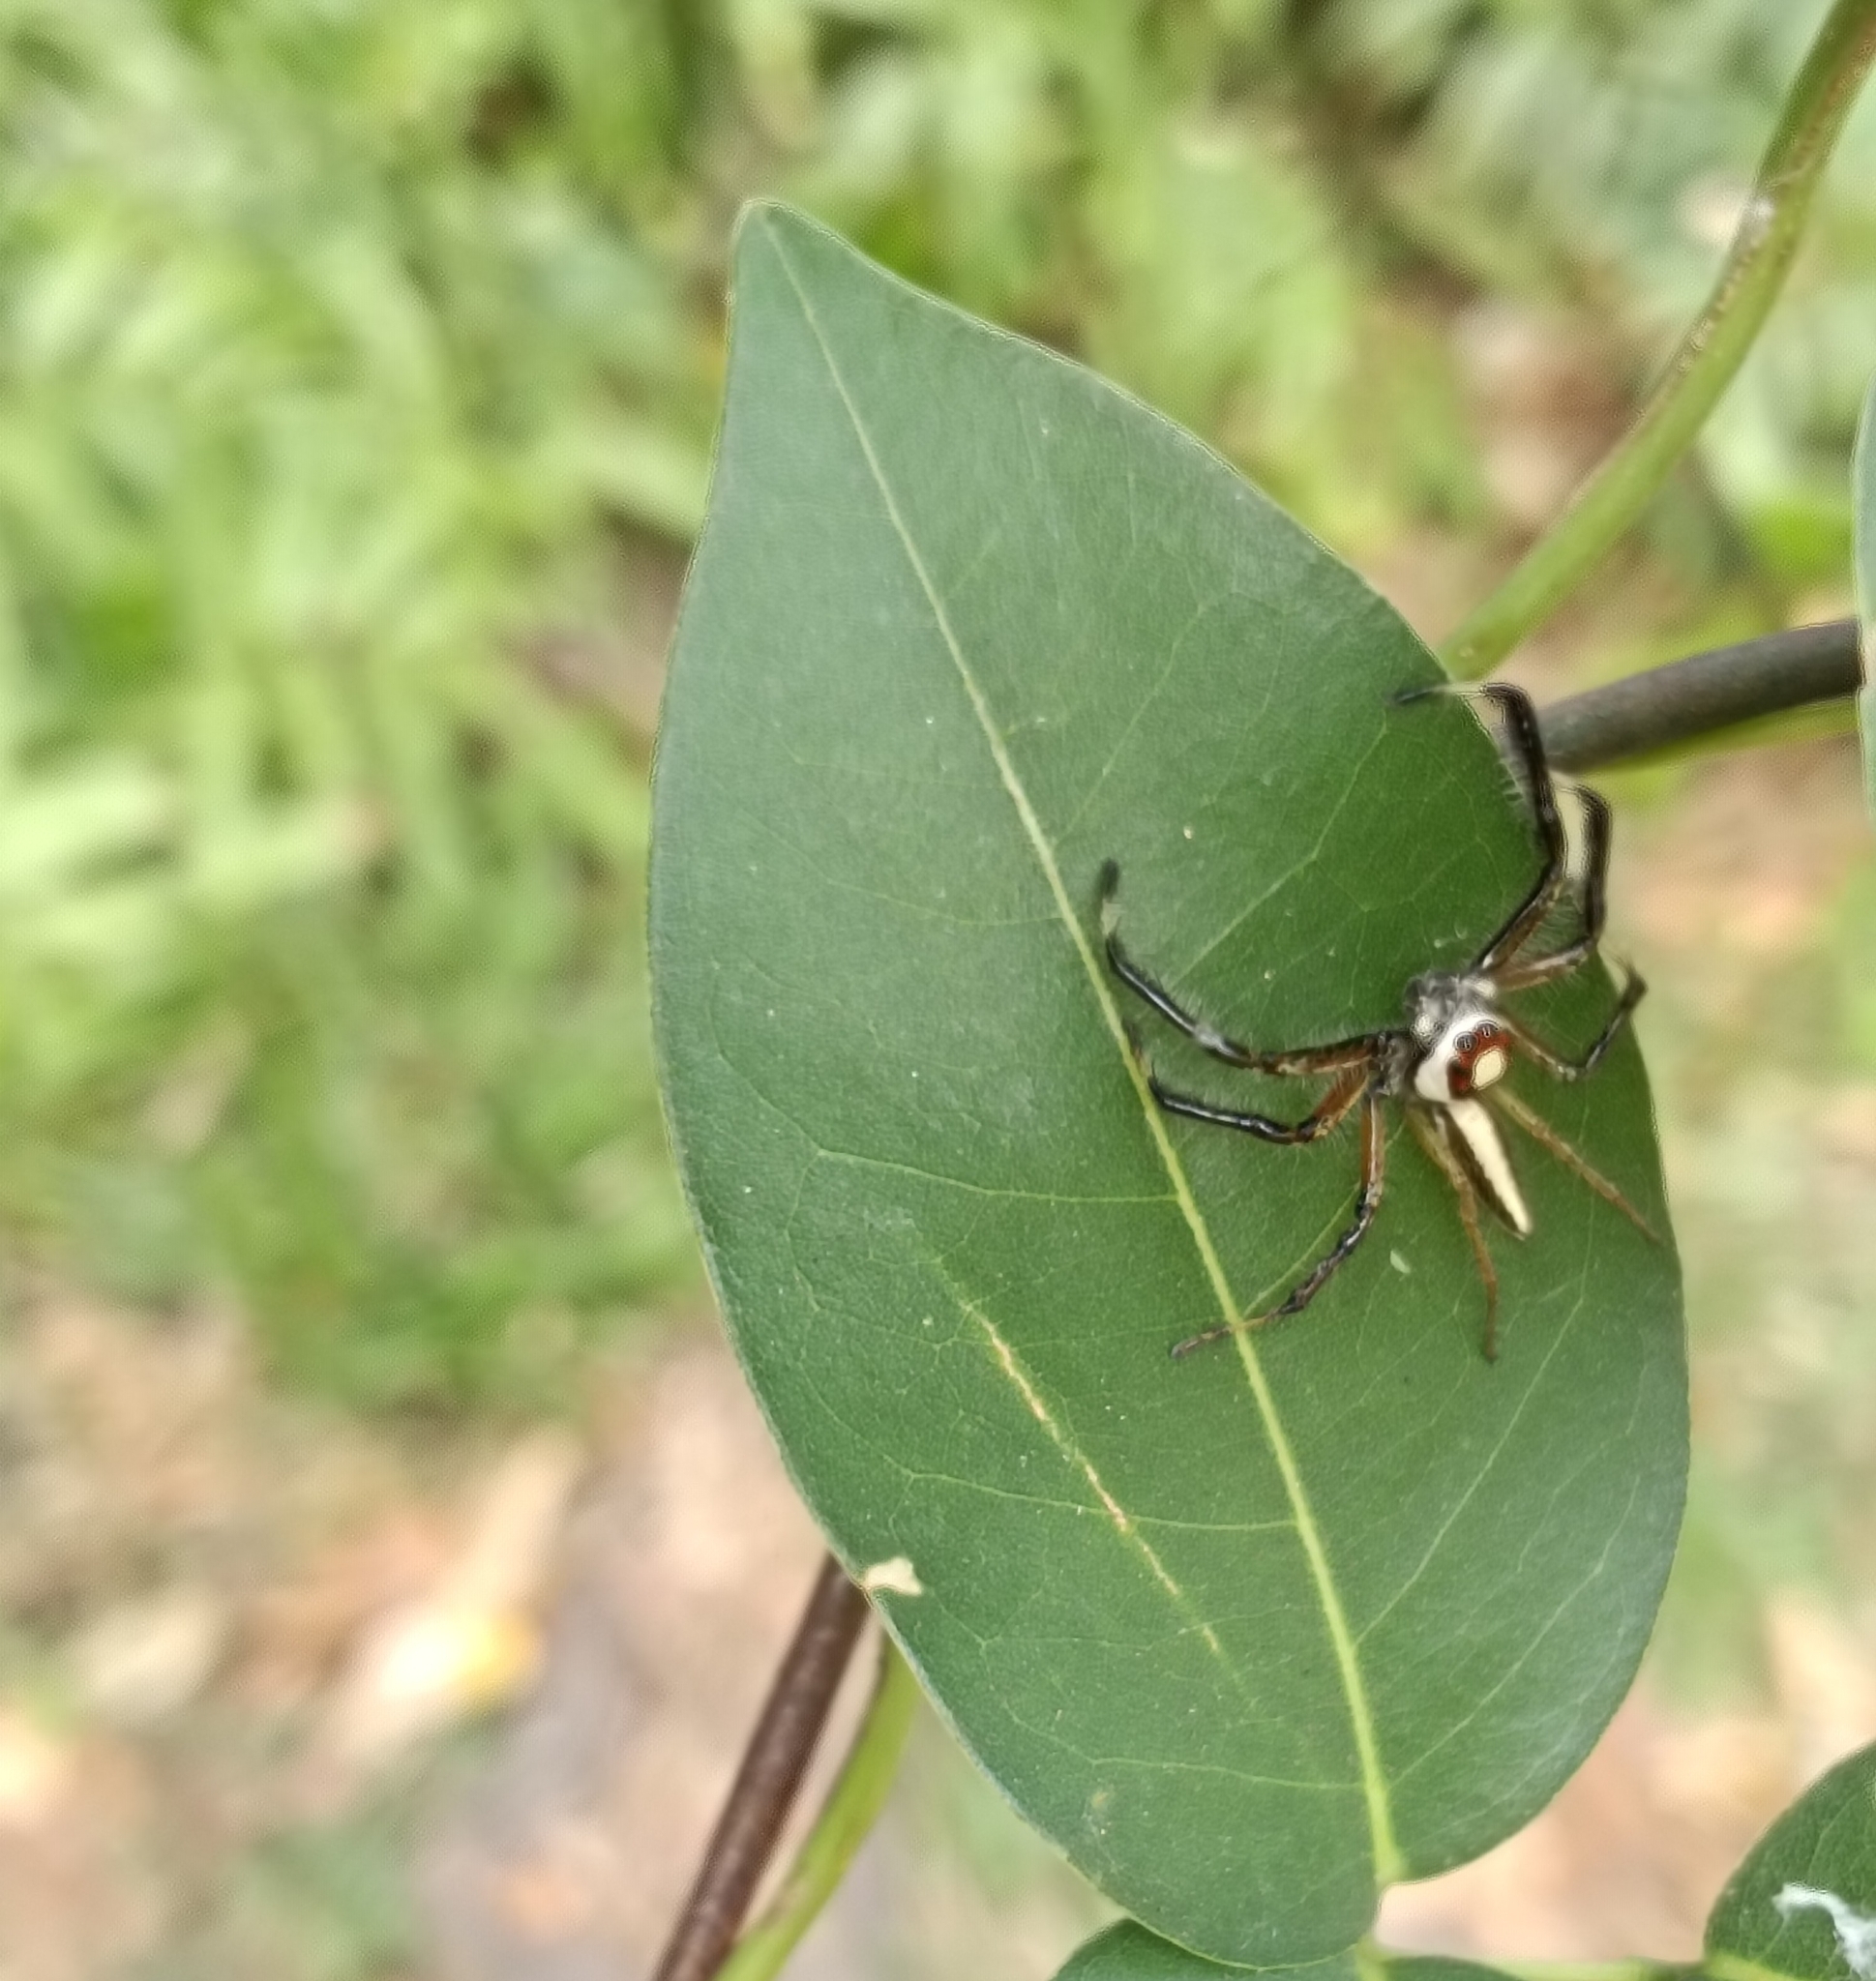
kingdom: Animalia
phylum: Arthropoda
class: Arachnida
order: Araneae
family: Salticidae
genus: Telamonia
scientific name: Telamonia dimidiata
